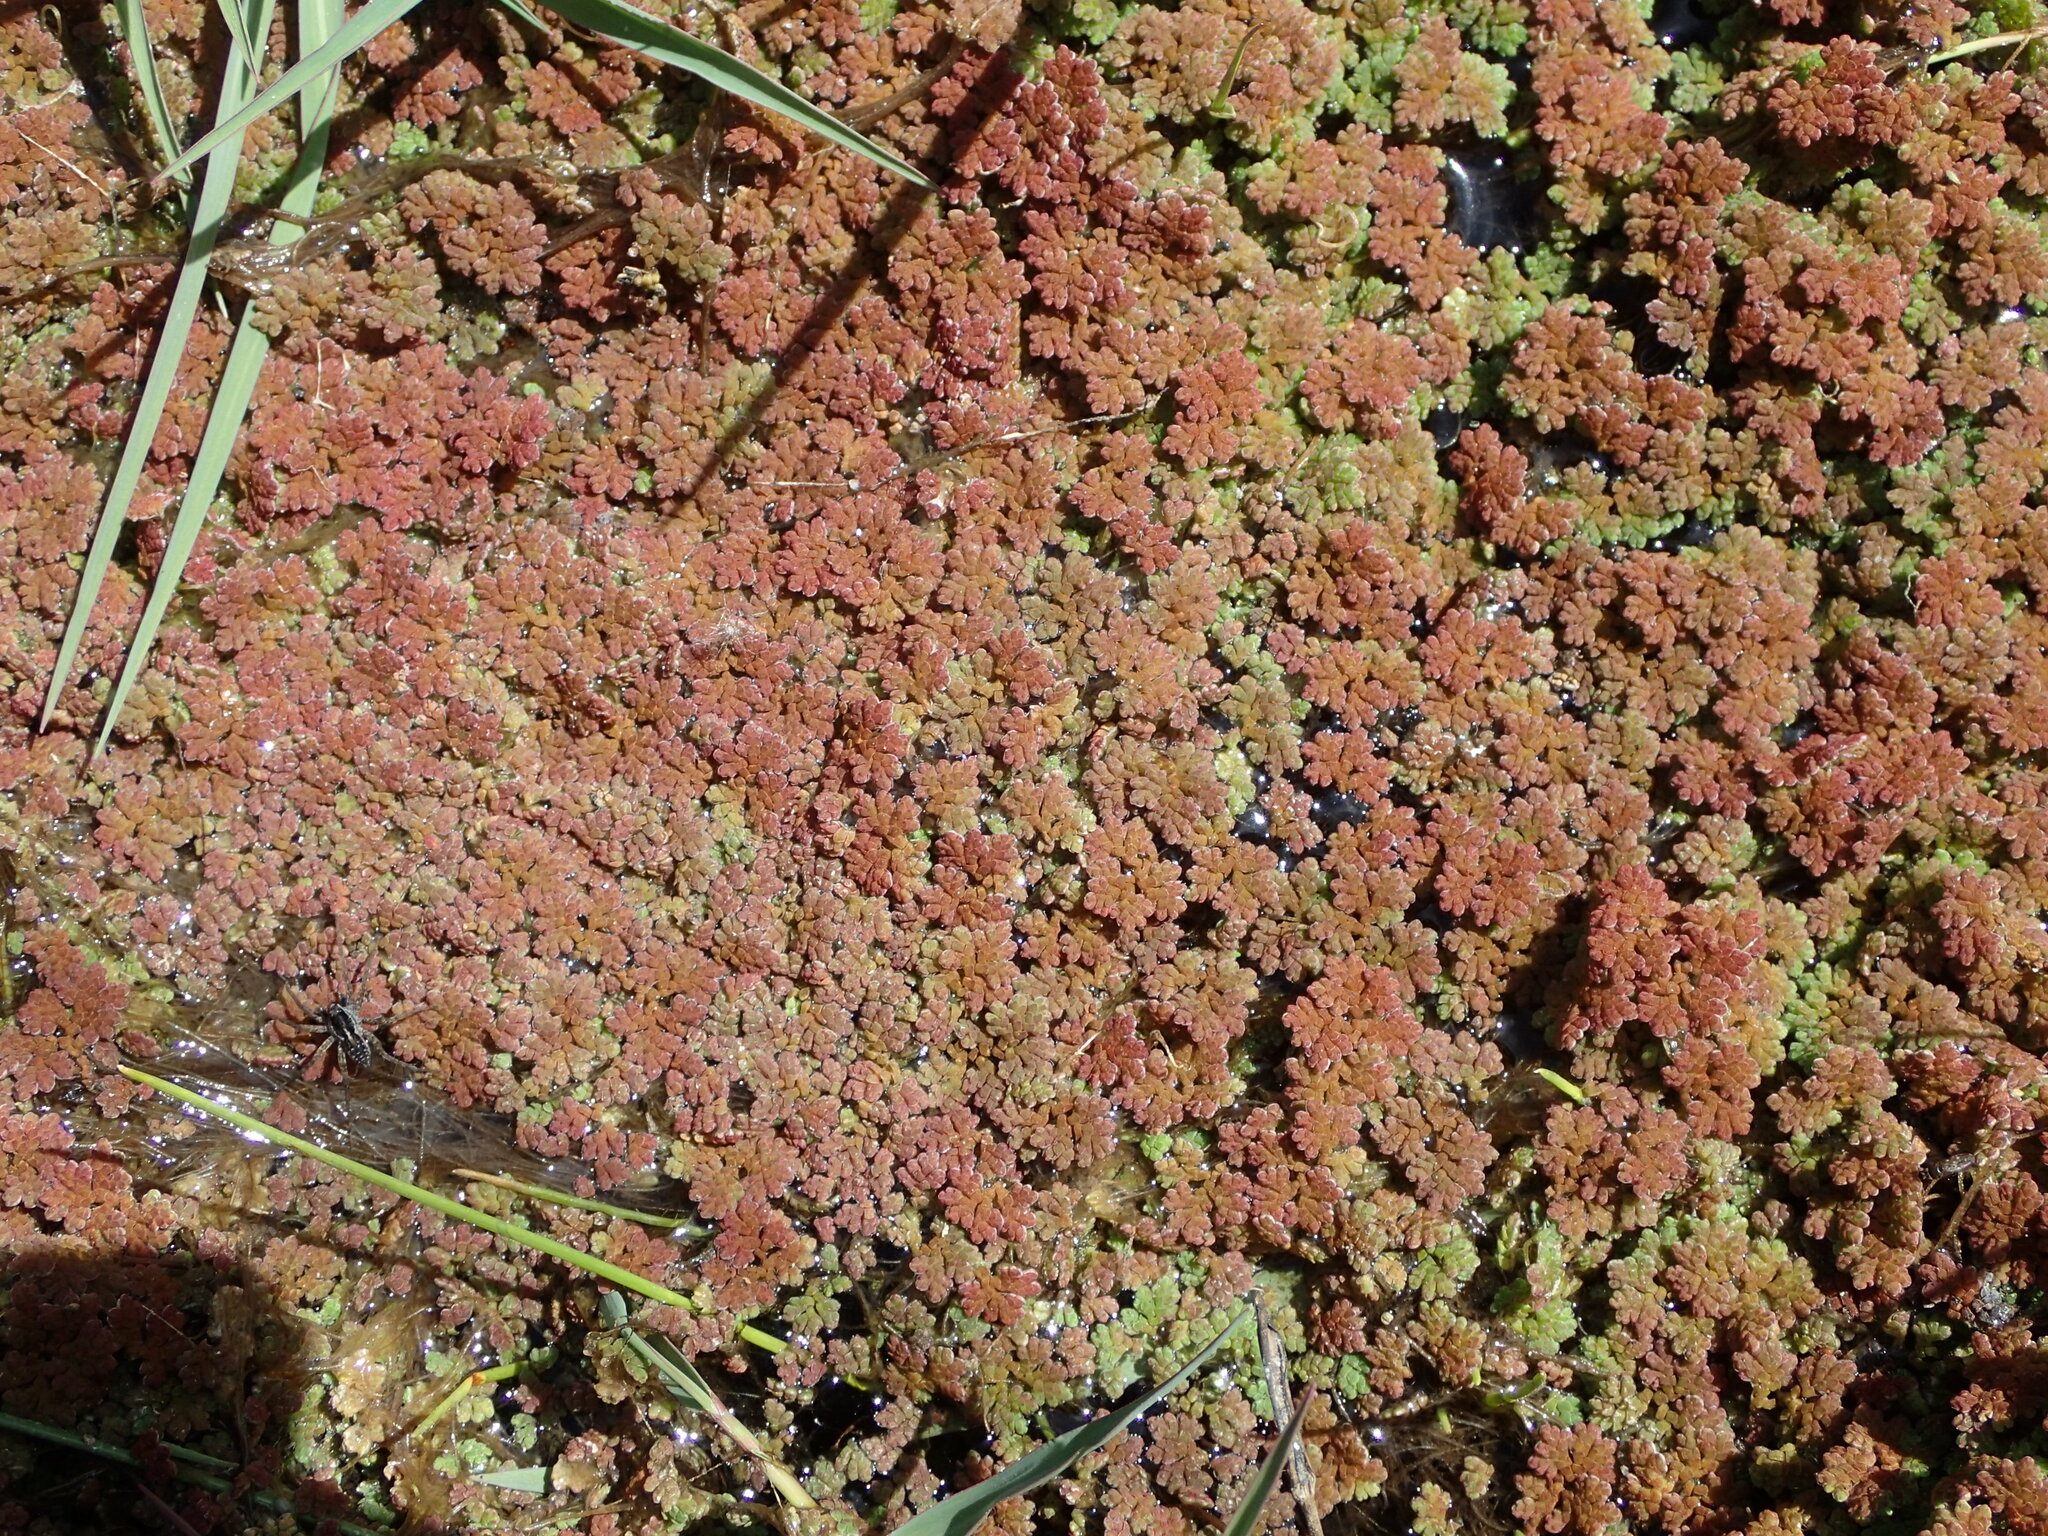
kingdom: Plantae
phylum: Tracheophyta
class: Polypodiopsida
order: Salviniales
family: Salviniaceae
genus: Azolla
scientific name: Azolla filiculoides
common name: Water fern
